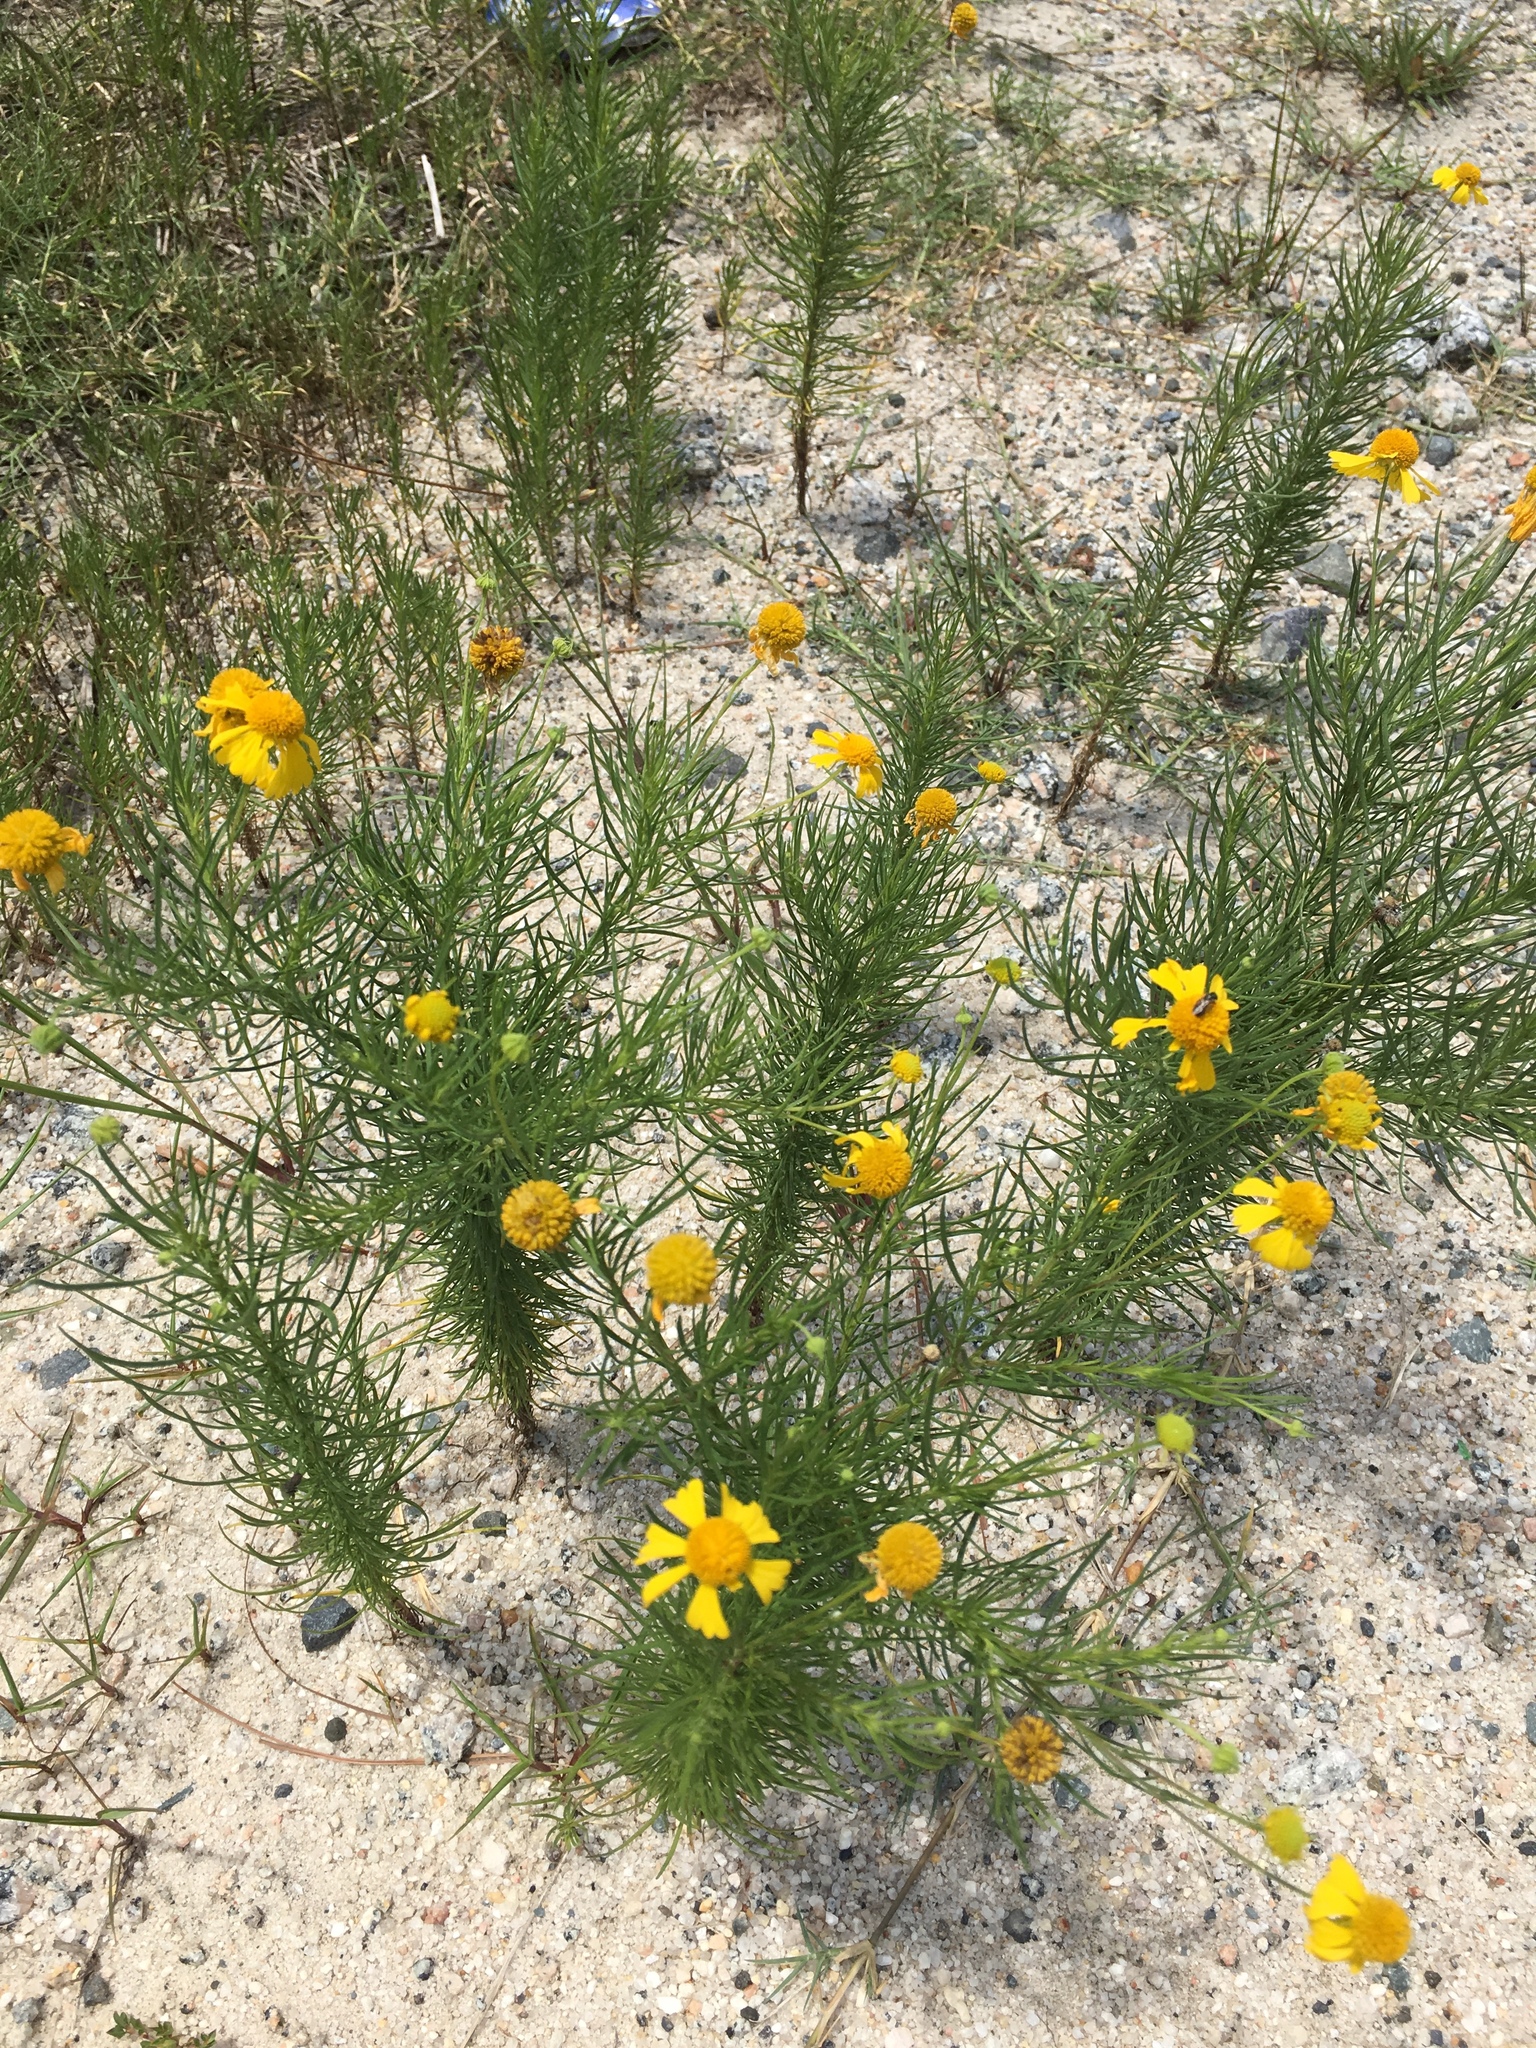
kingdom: Plantae
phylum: Tracheophyta
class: Magnoliopsida
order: Asterales
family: Asteraceae
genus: Helenium
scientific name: Helenium amarum
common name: Bitter sneezeweed
